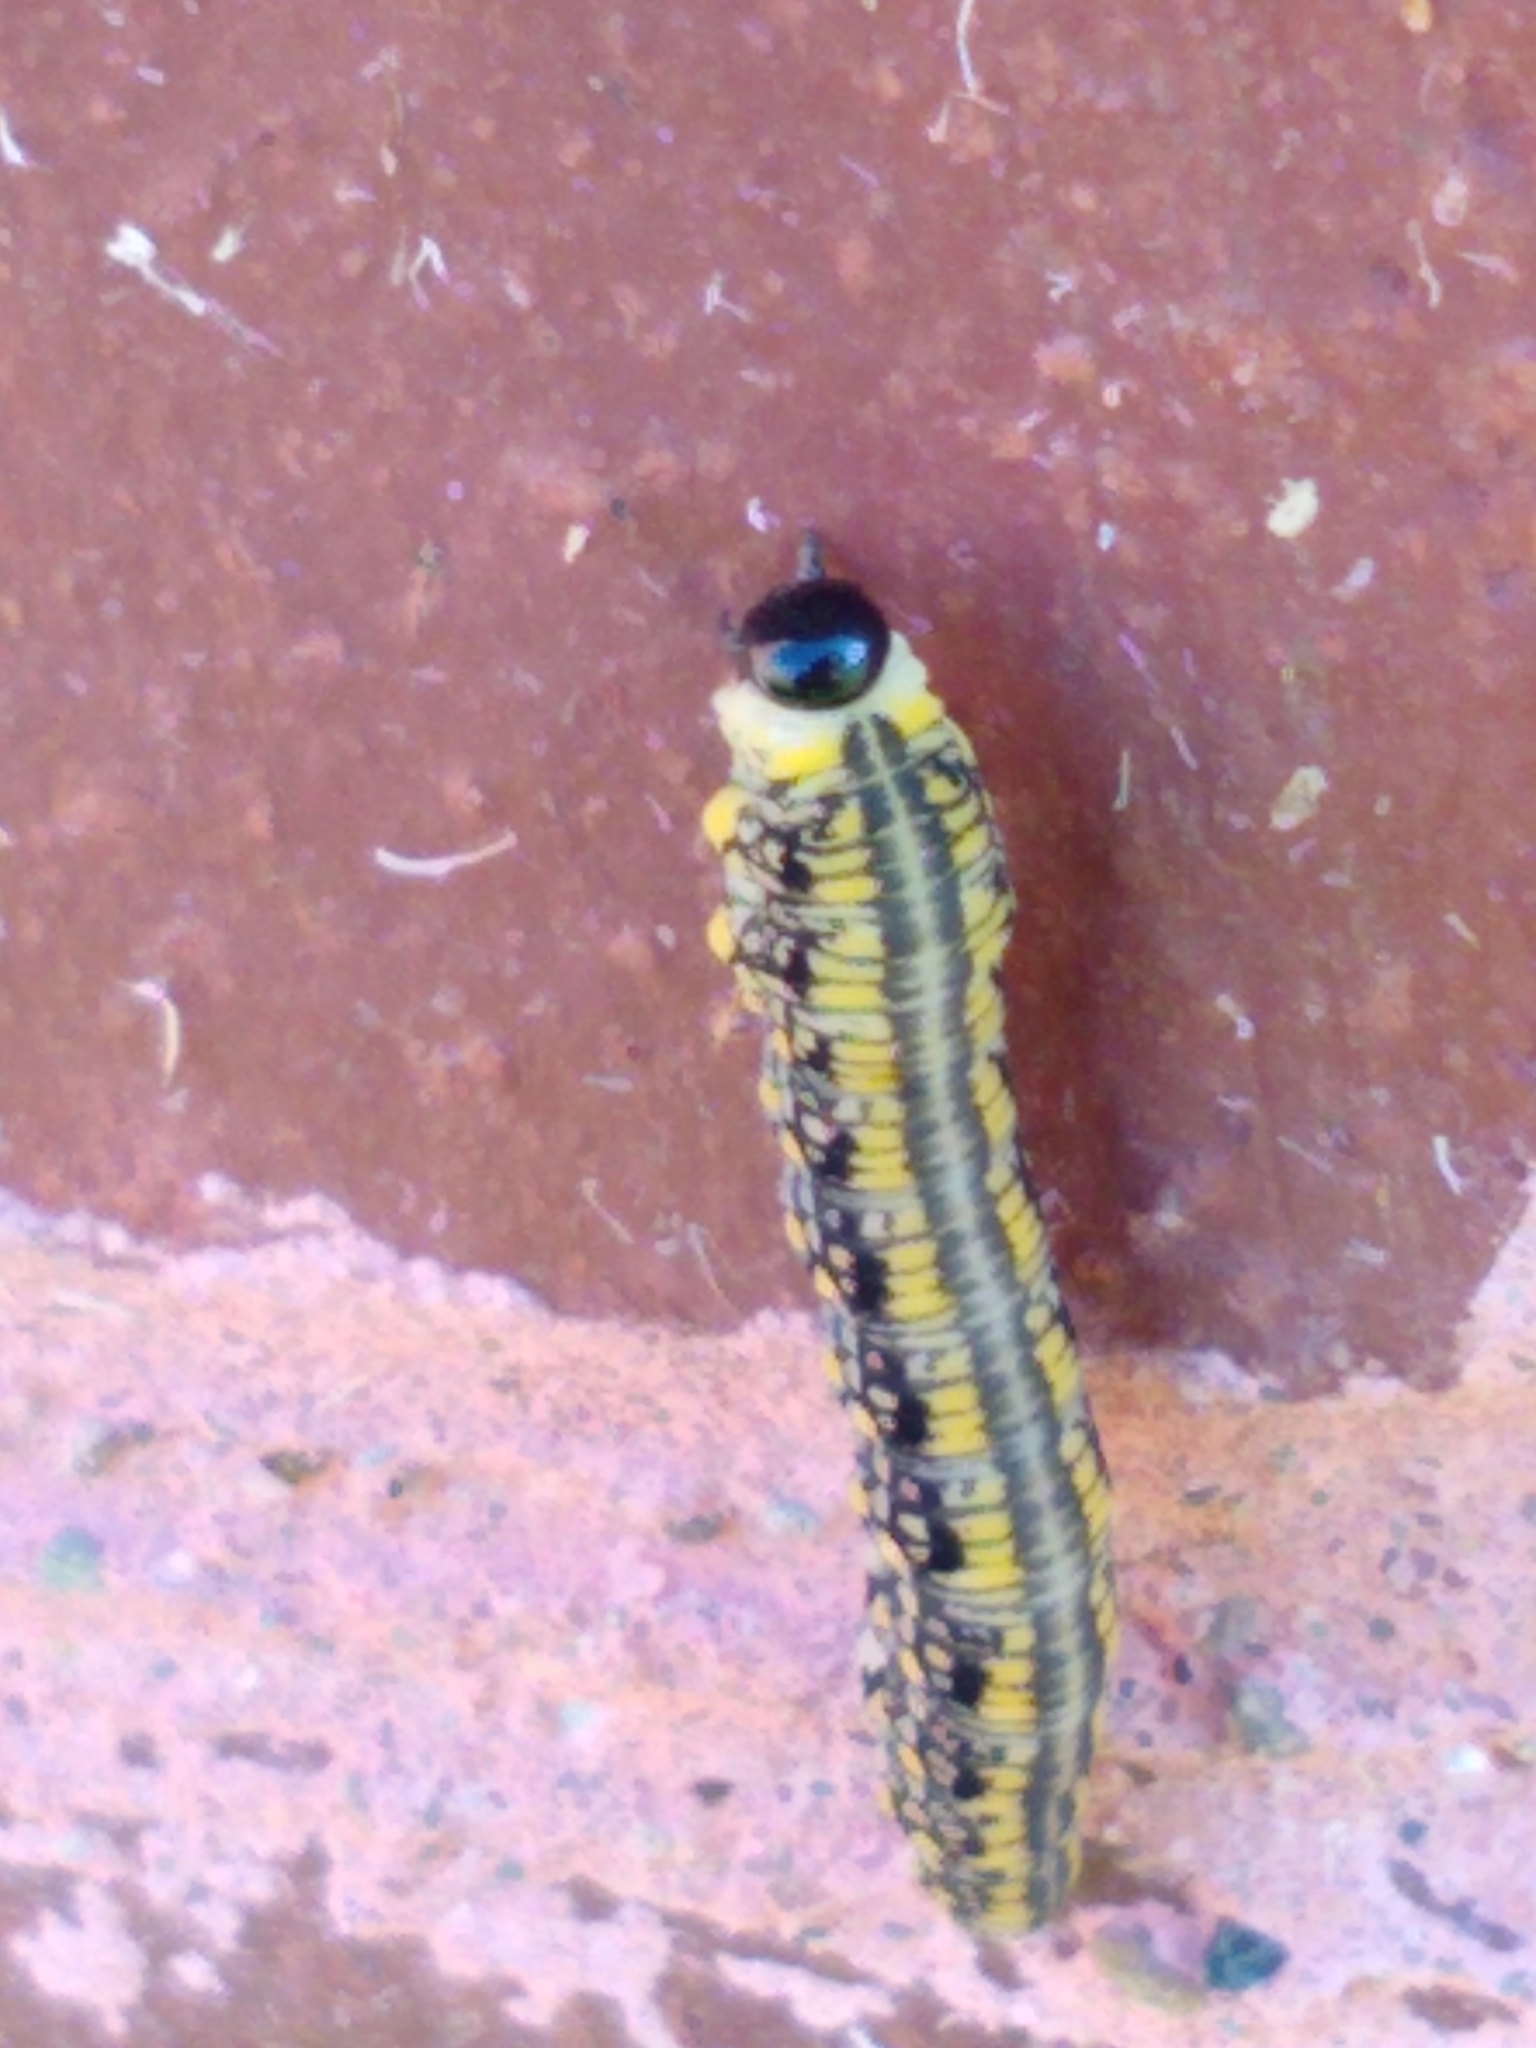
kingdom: Animalia
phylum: Arthropoda
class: Insecta
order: Hymenoptera
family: Diprionidae
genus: Diprion
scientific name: Diprion similis
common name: Pine sawfly
